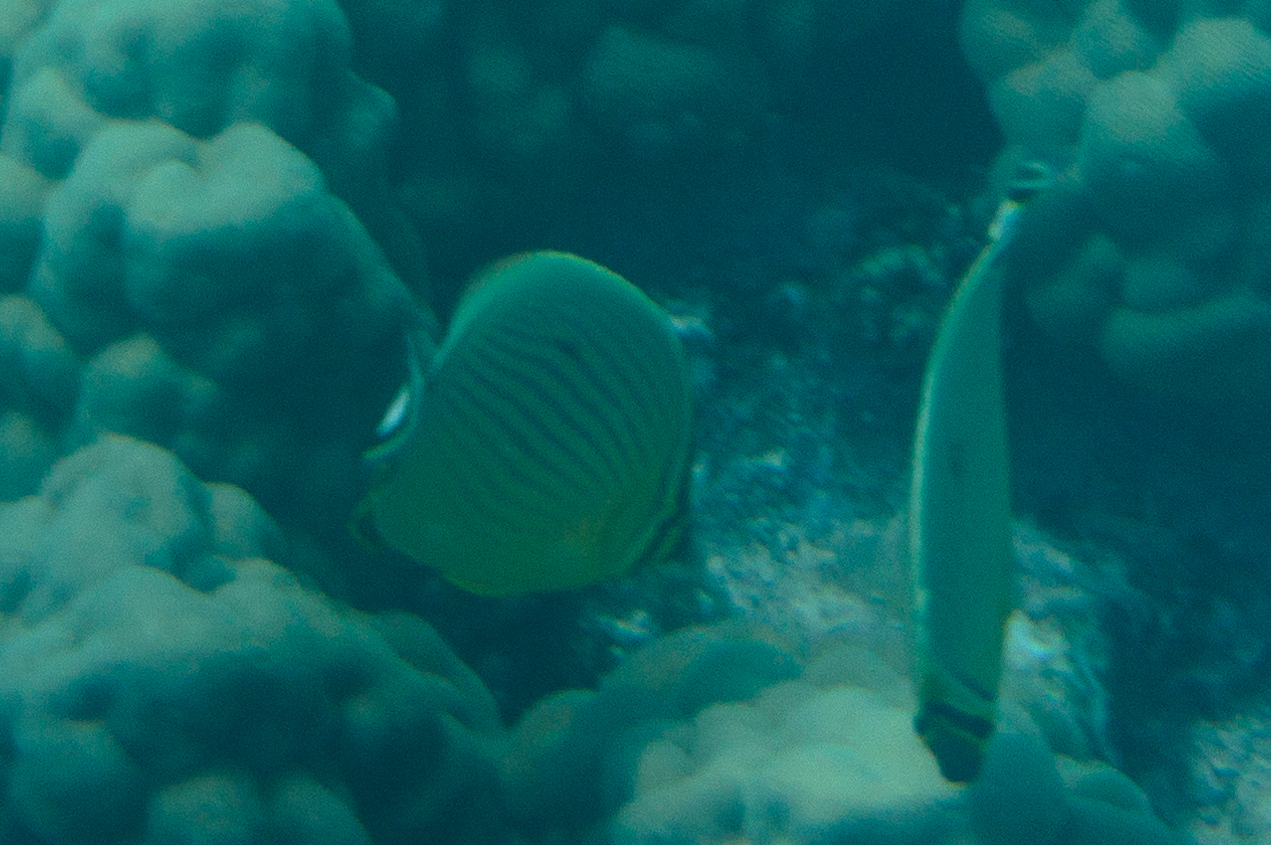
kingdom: Animalia
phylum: Chordata
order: Perciformes
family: Chaetodontidae
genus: Chaetodon
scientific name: Chaetodon lunulatus
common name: Redfin butterflyfish
